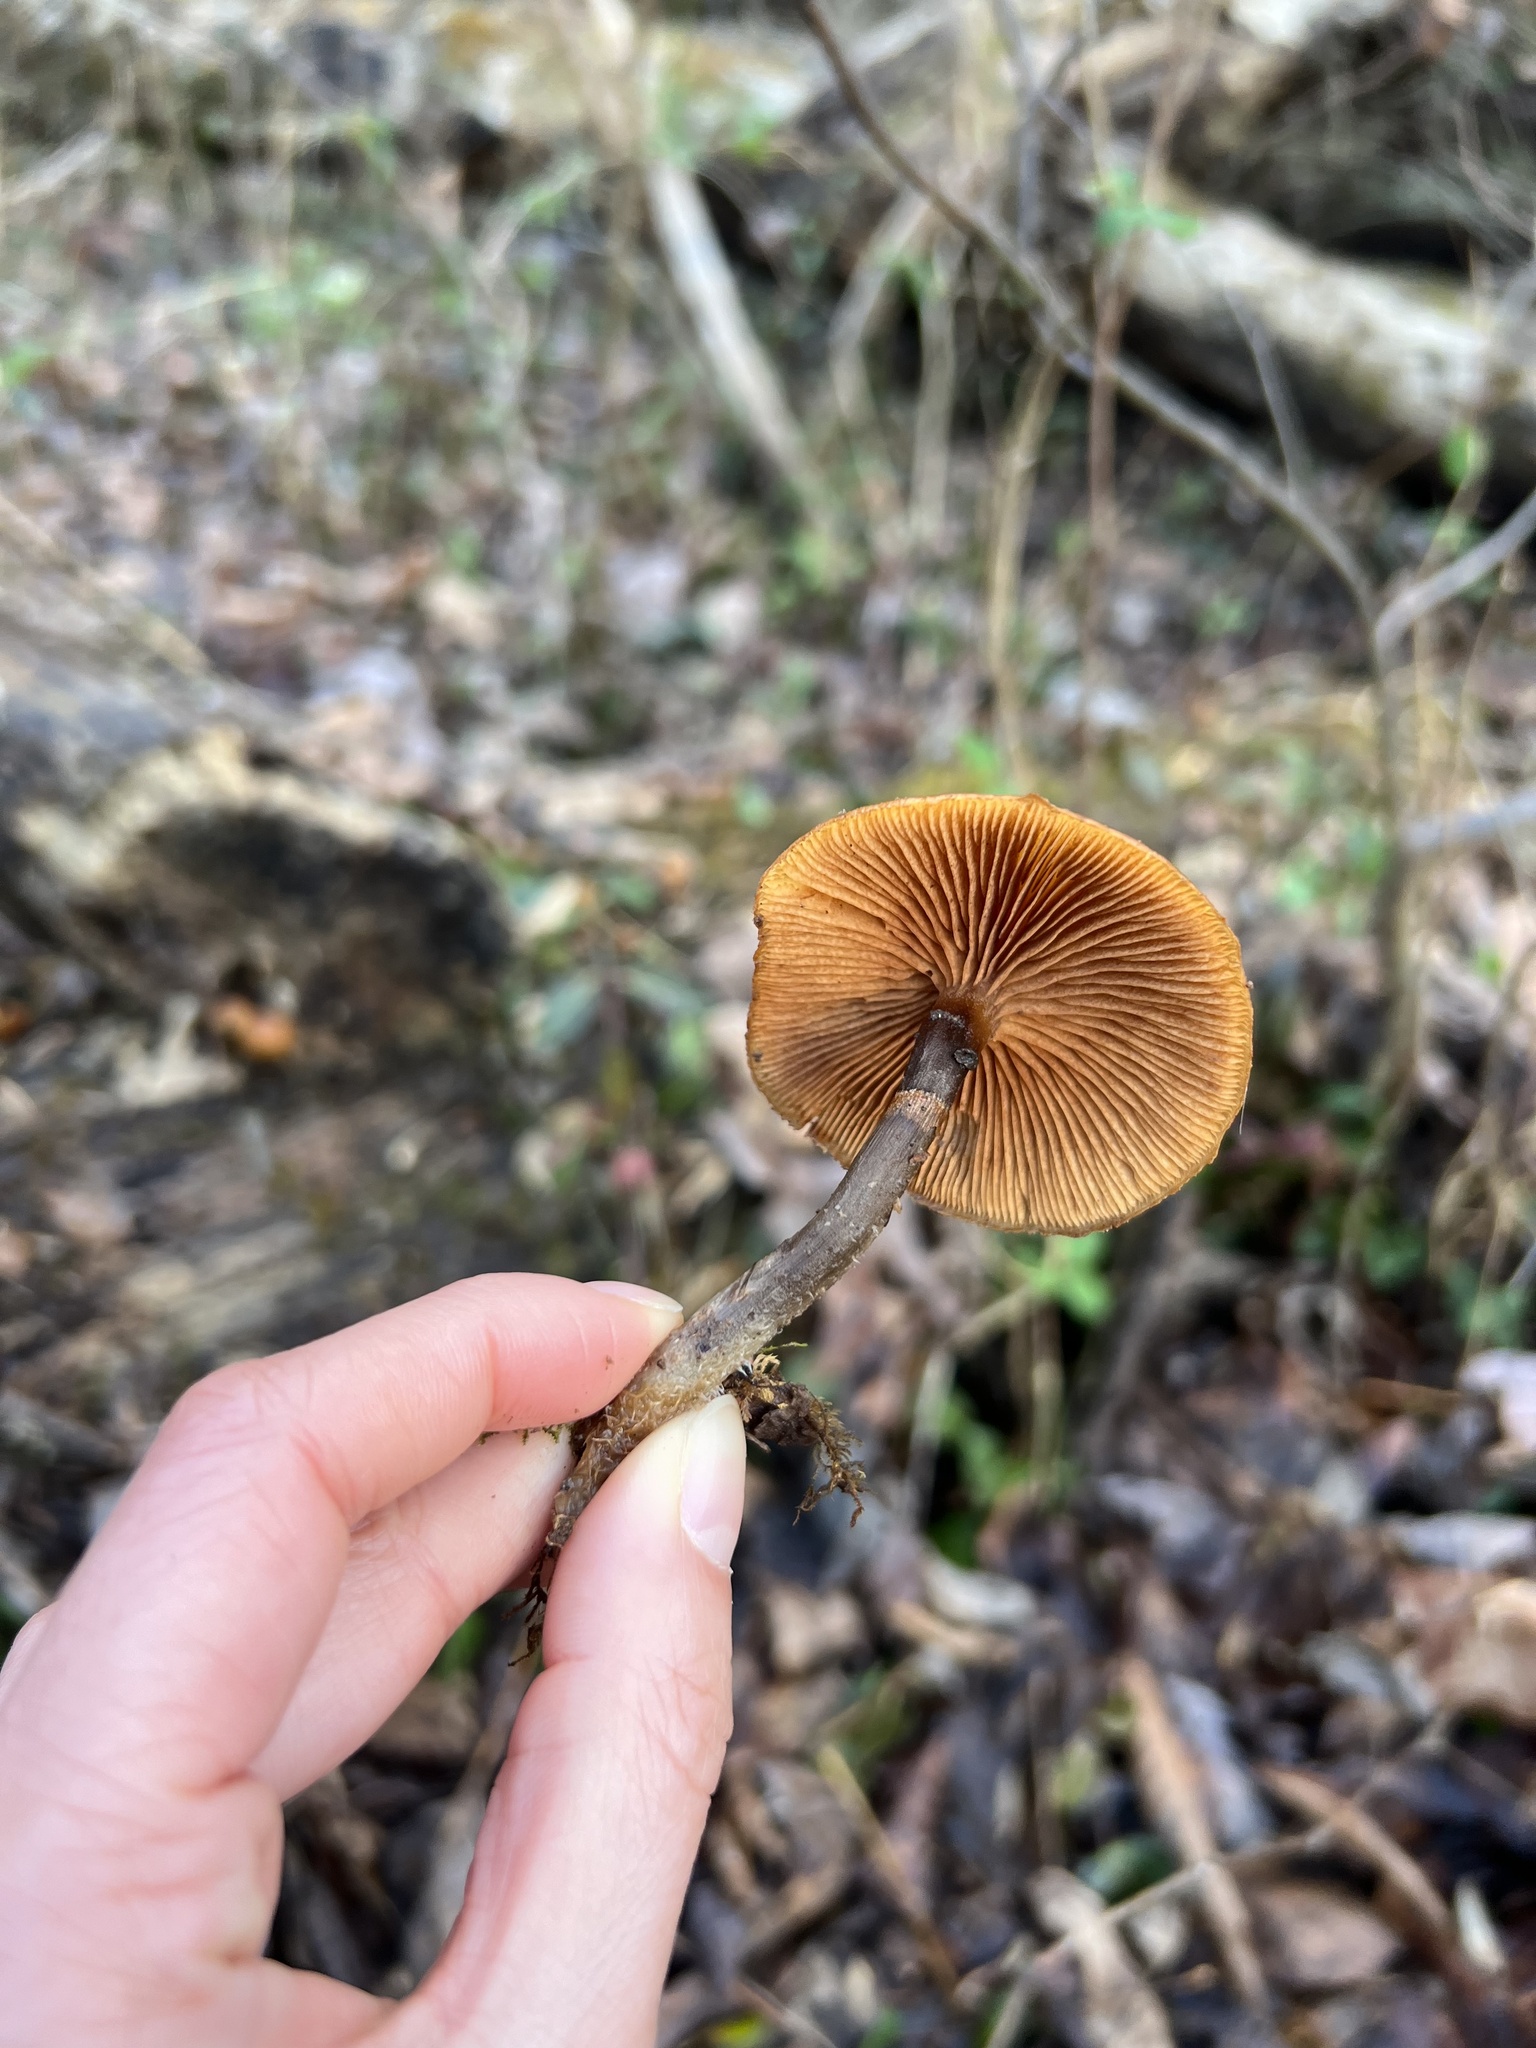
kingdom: Fungi
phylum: Basidiomycota
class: Agaricomycetes
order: Agaricales
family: Hymenogastraceae
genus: Galerina
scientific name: Galerina marginata
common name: Funeral bell
